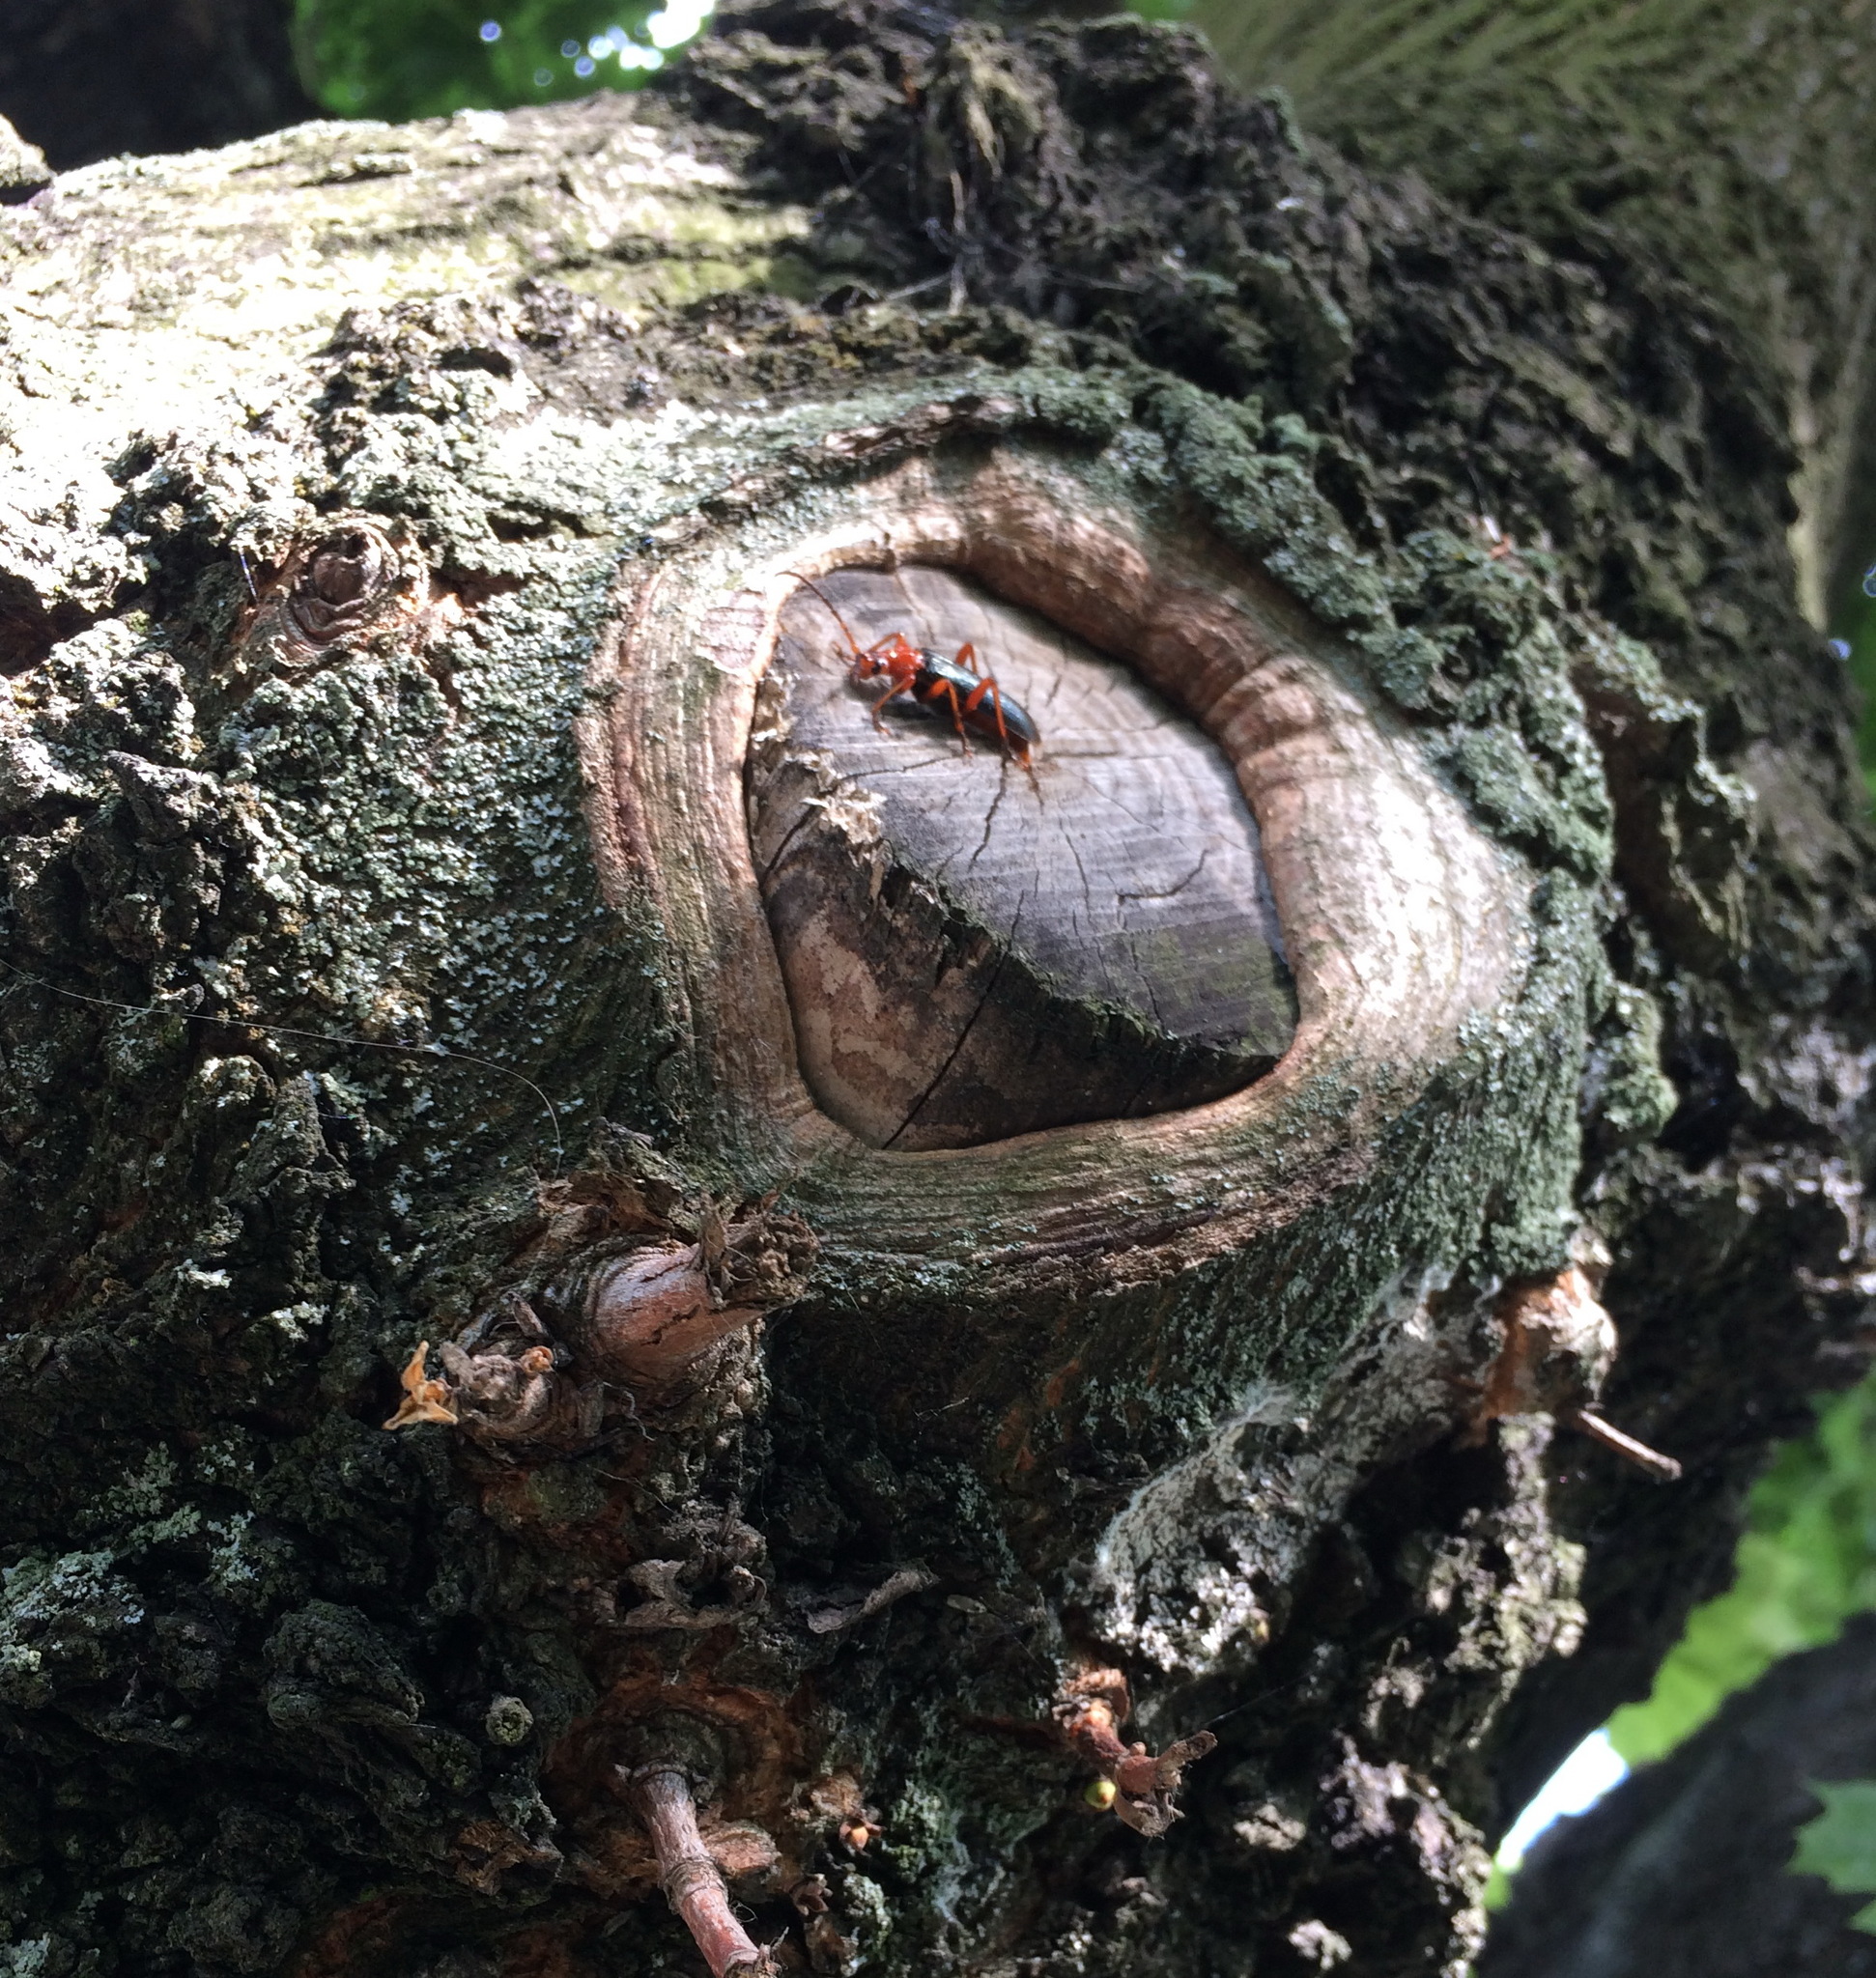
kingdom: Animalia
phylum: Arthropoda
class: Insecta
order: Coleoptera
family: Cerambycidae
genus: Rhamnusium
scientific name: Rhamnusium bicolor
